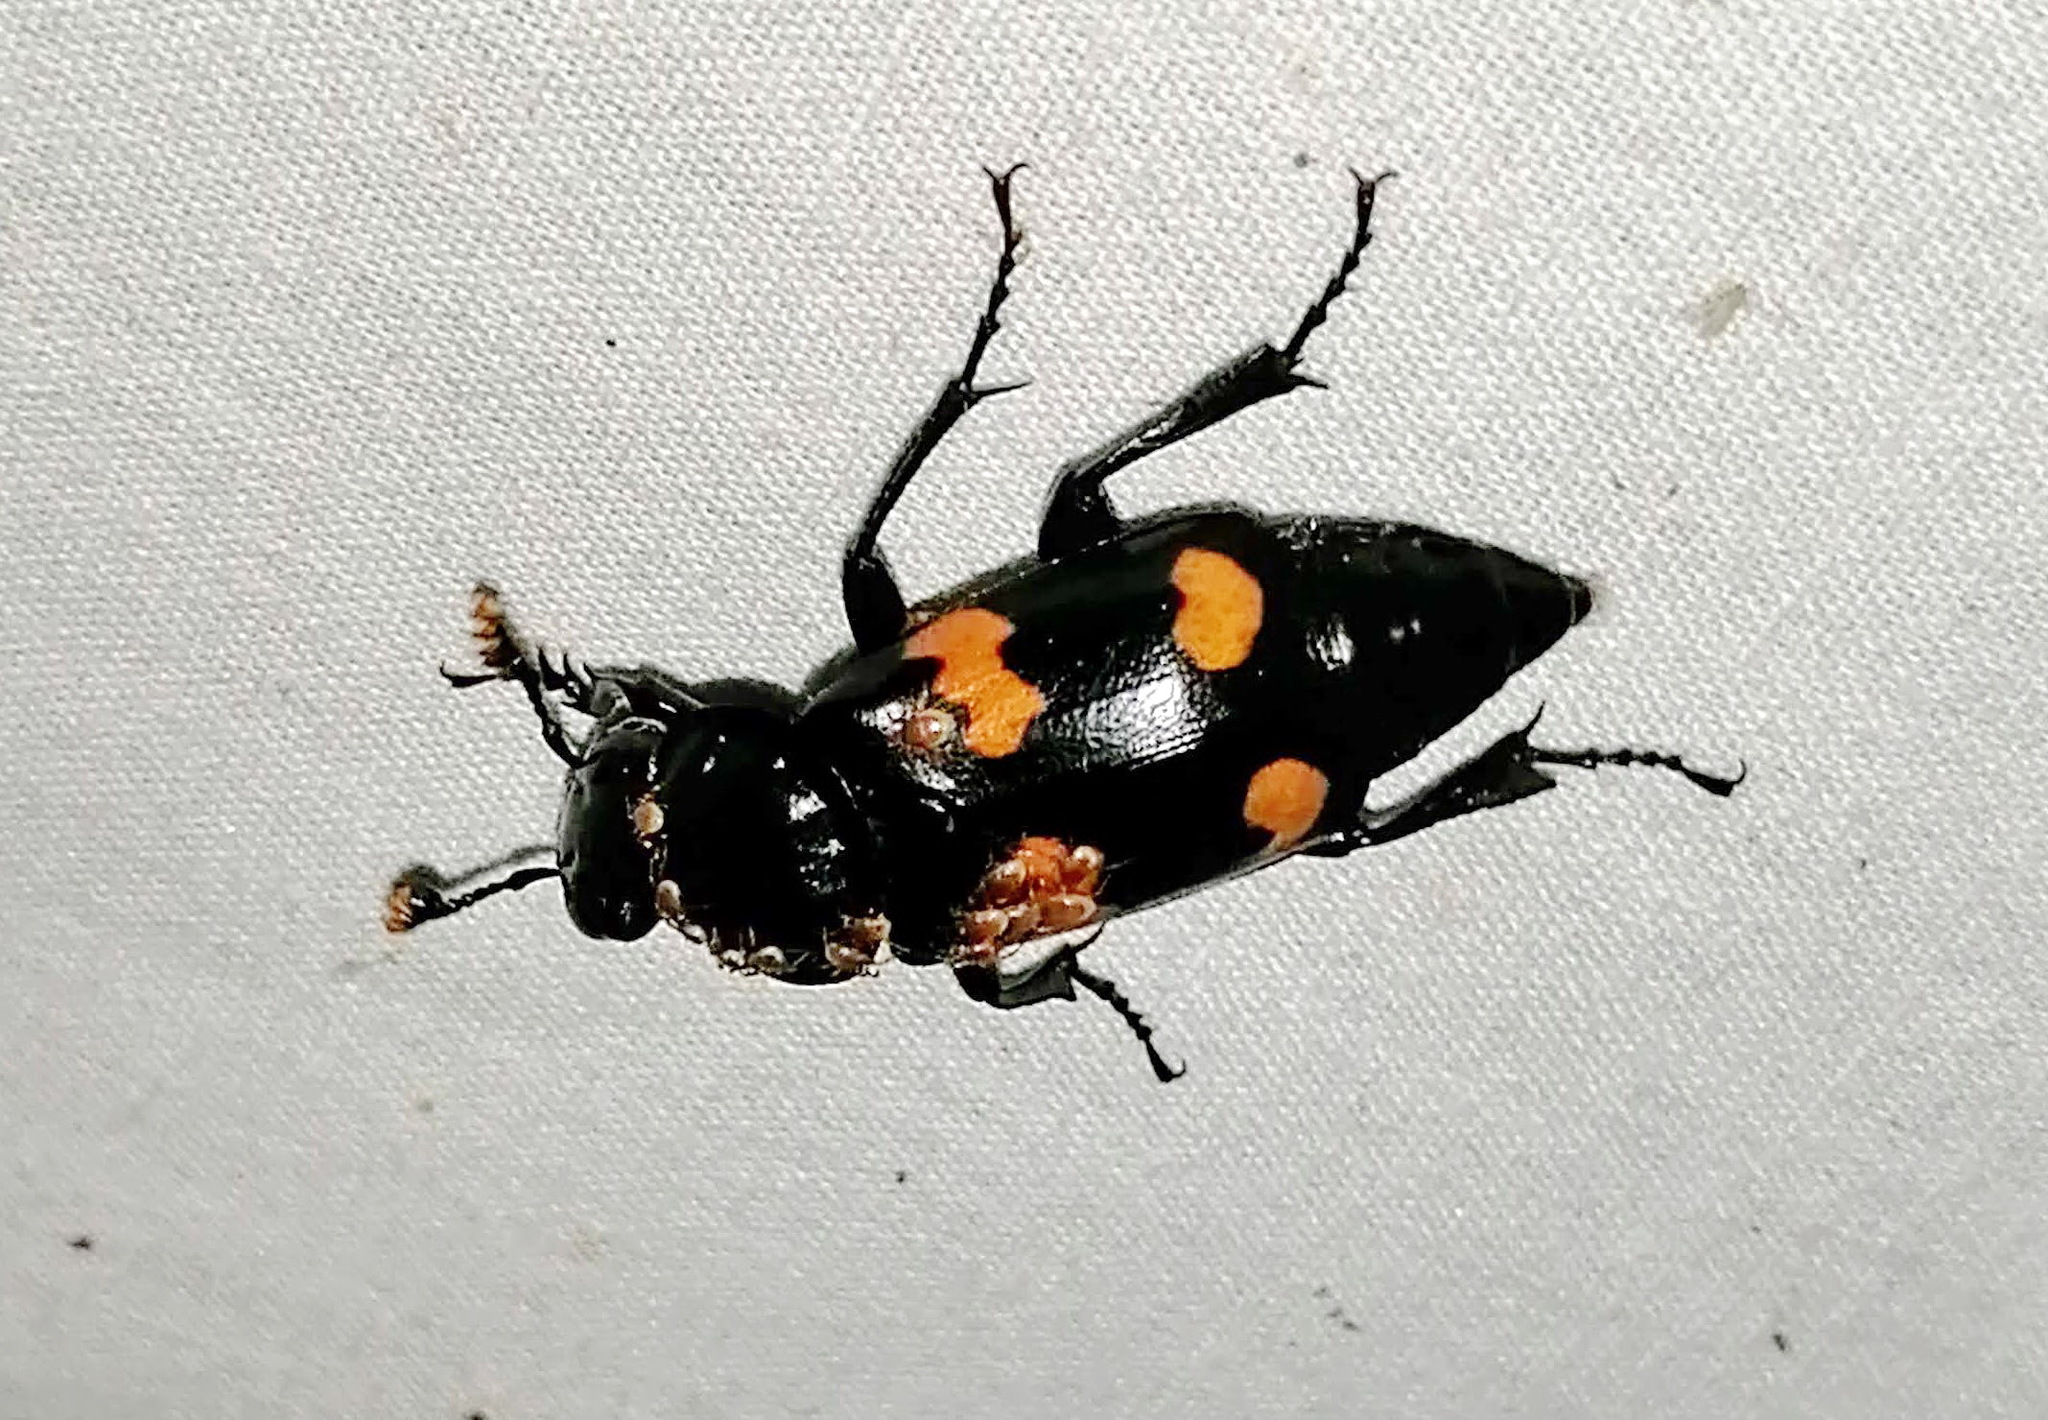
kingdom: Animalia
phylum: Arthropoda
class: Insecta
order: Coleoptera
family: Staphylinidae
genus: Nicrophorus
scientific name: Nicrophorus orbicollis
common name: Roundneck sexton beetle
